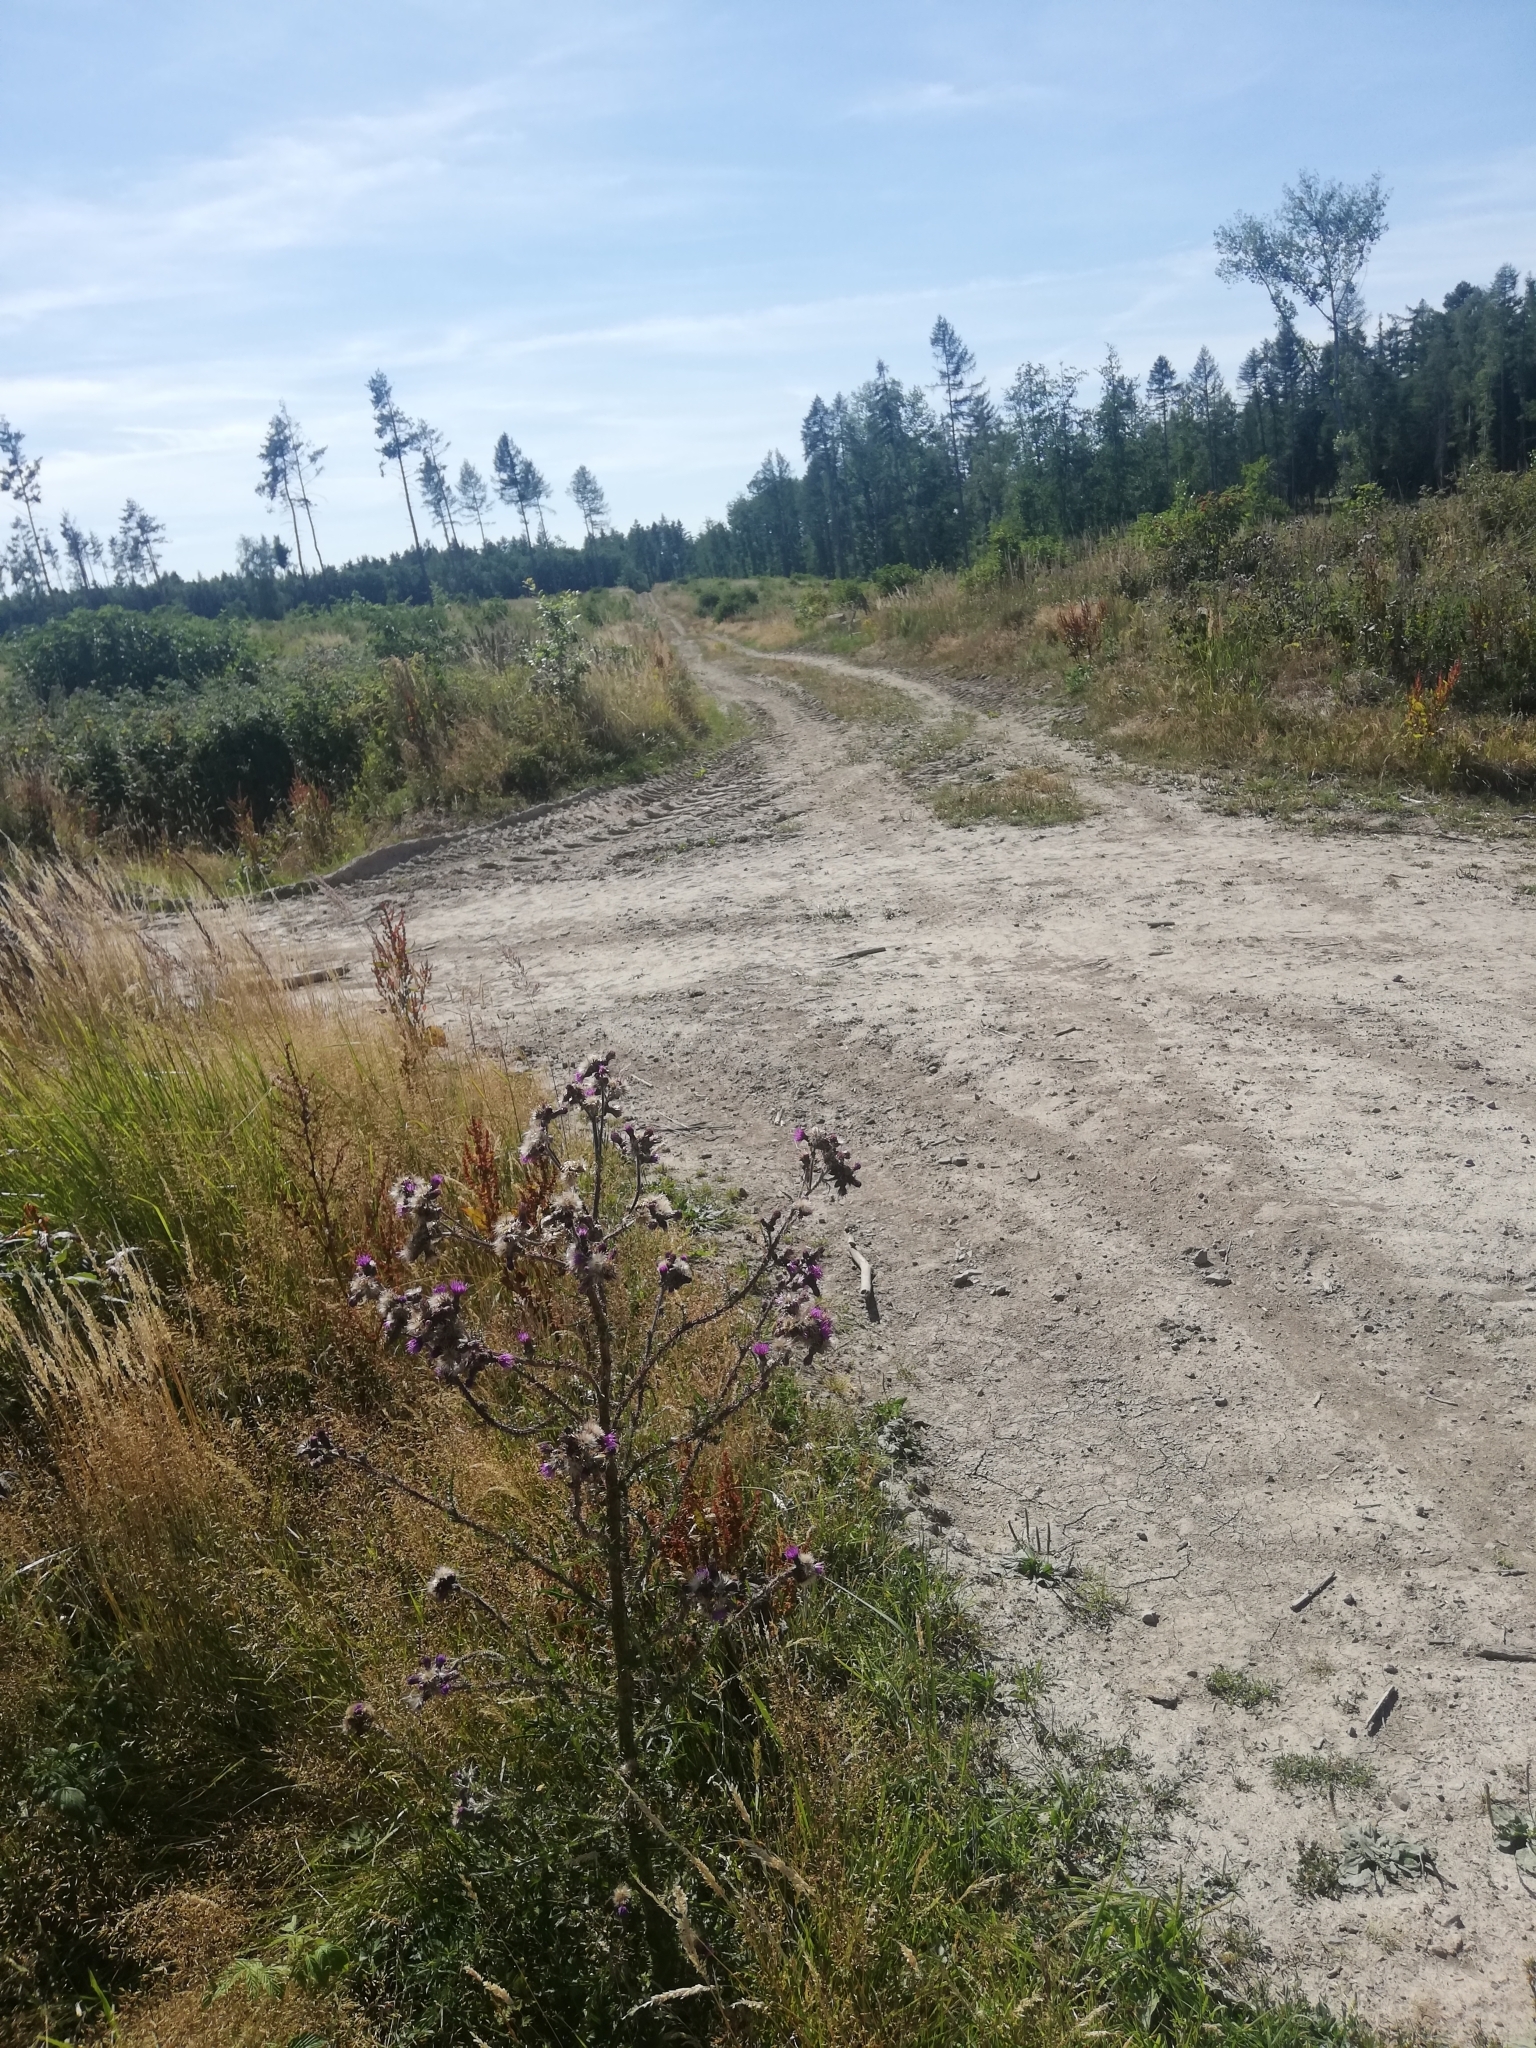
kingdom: Animalia
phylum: Arthropoda
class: Insecta
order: Hemiptera
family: Pentatomidae
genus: Carpocoris
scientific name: Carpocoris fuscispinus
